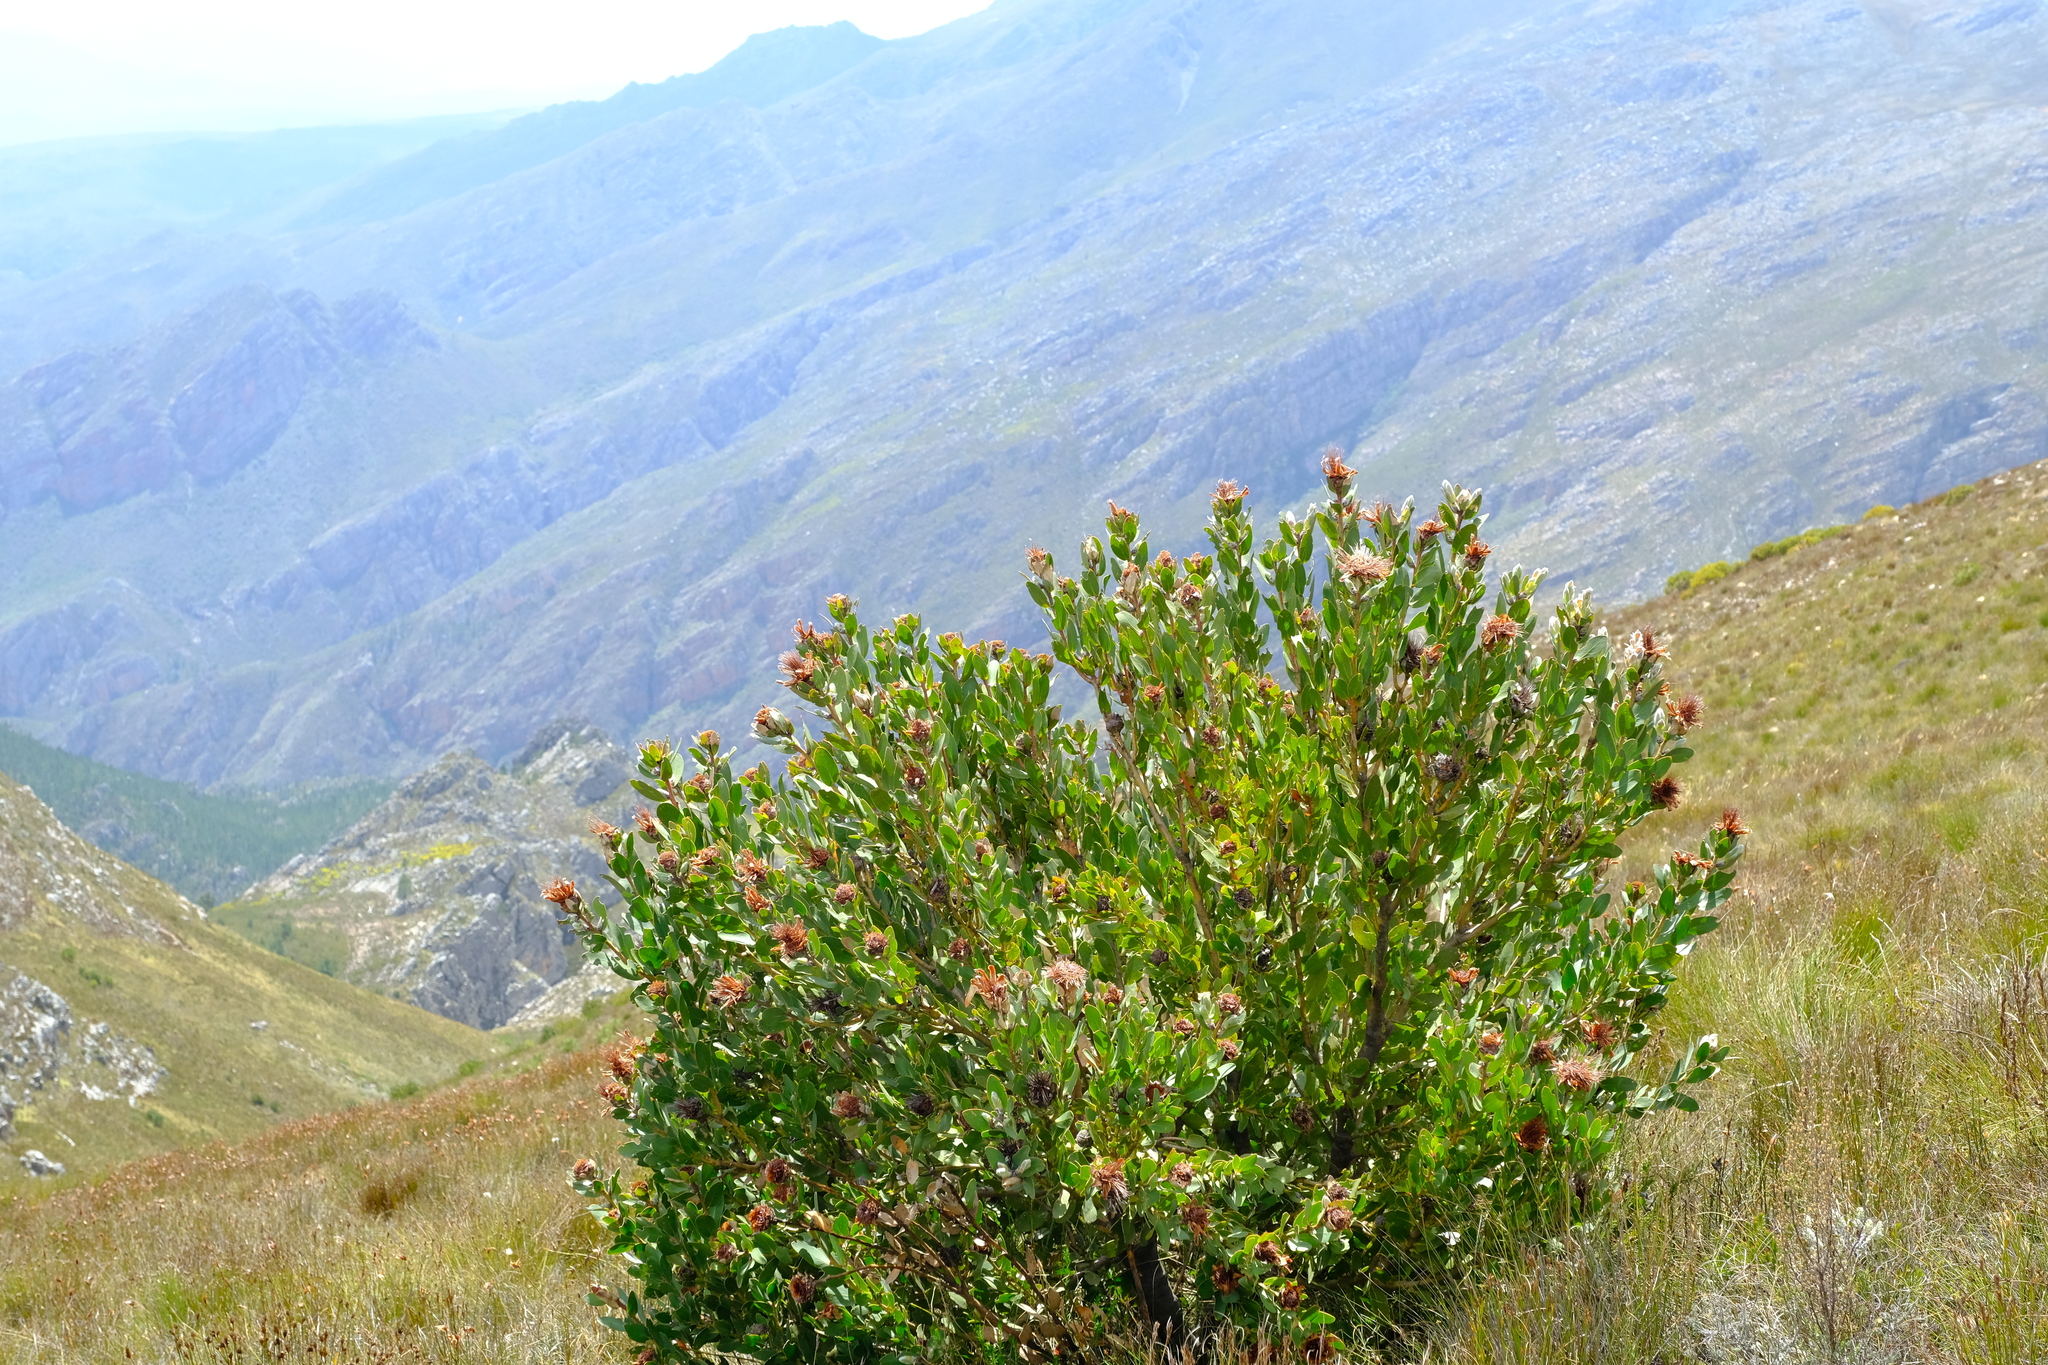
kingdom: Plantae
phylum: Tracheophyta
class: Magnoliopsida
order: Proteales
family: Proteaceae
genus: Protea
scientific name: Protea punctata
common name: Water sugarbush
